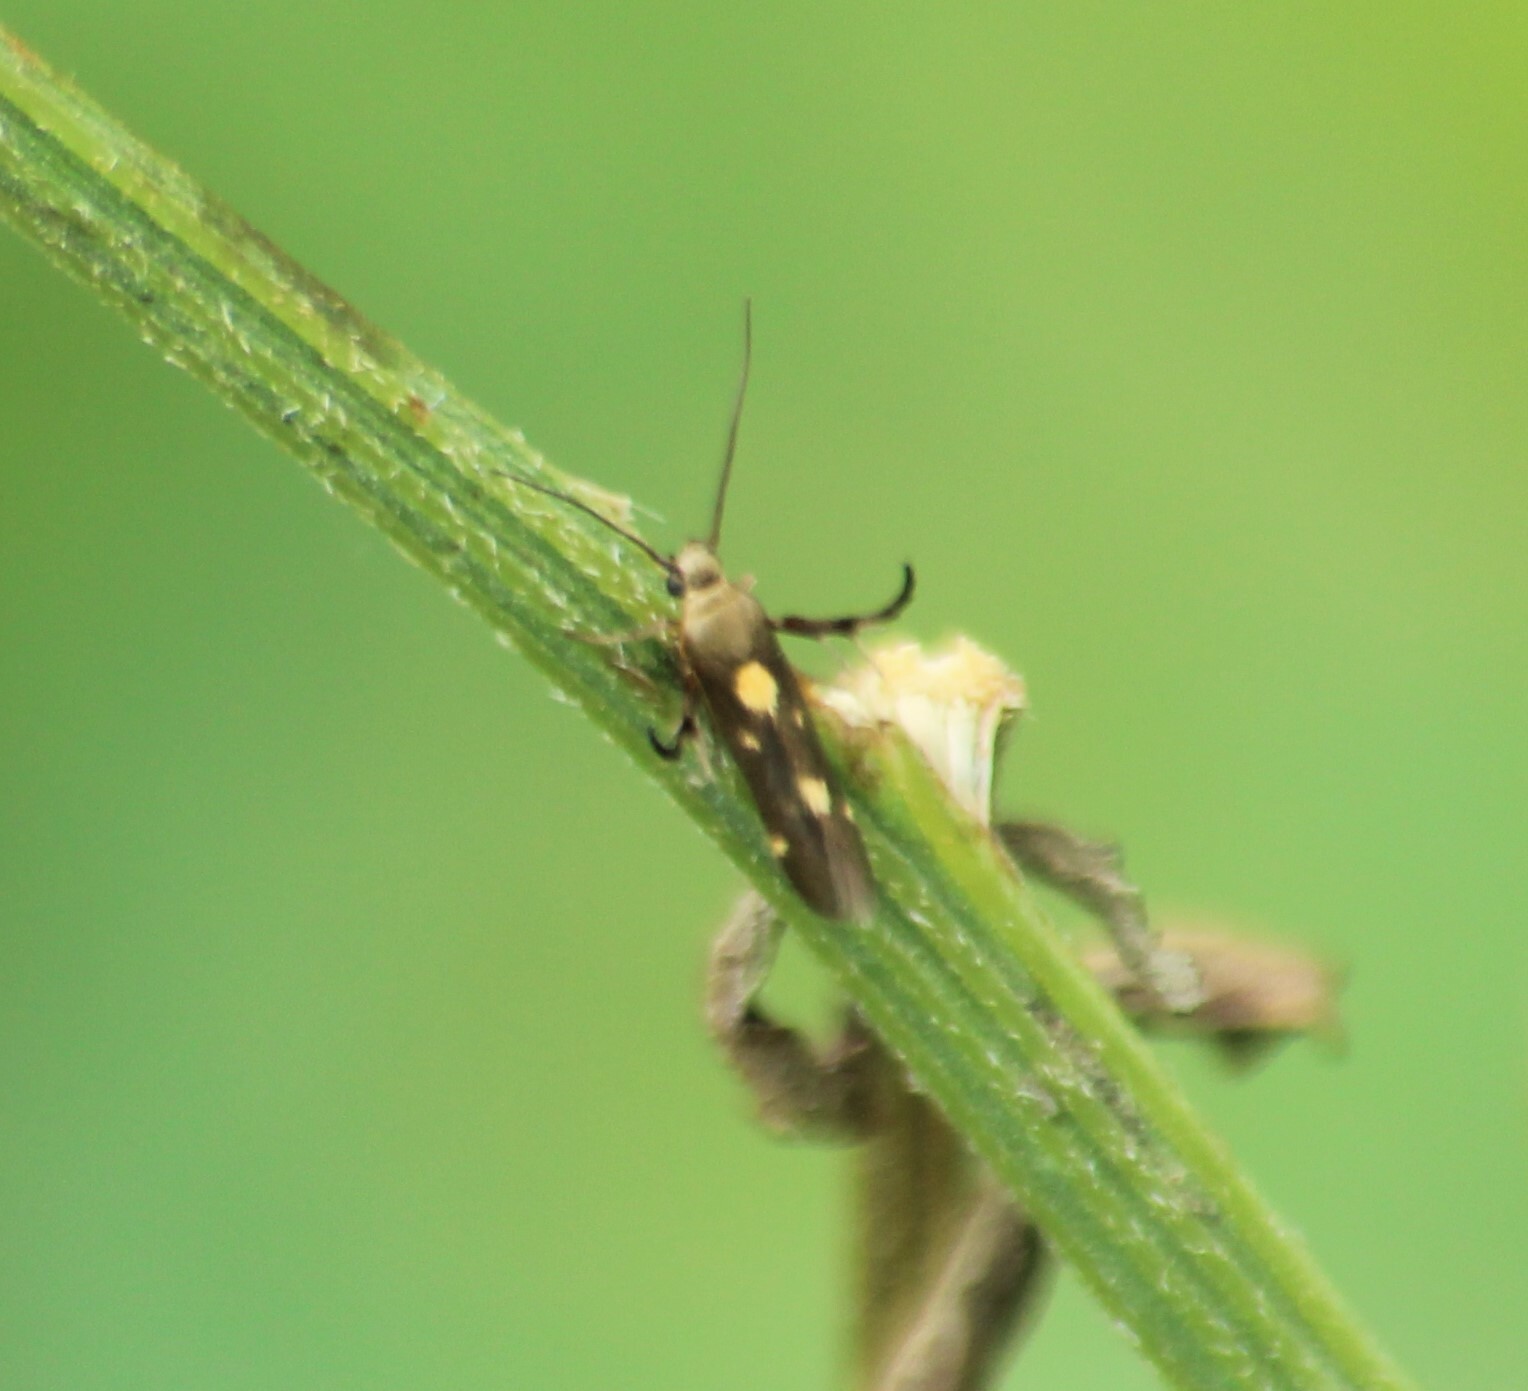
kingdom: Animalia
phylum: Arthropoda
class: Insecta
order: Lepidoptera
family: Scythrididae
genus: Eretmocera
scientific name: Eretmocera impactella
